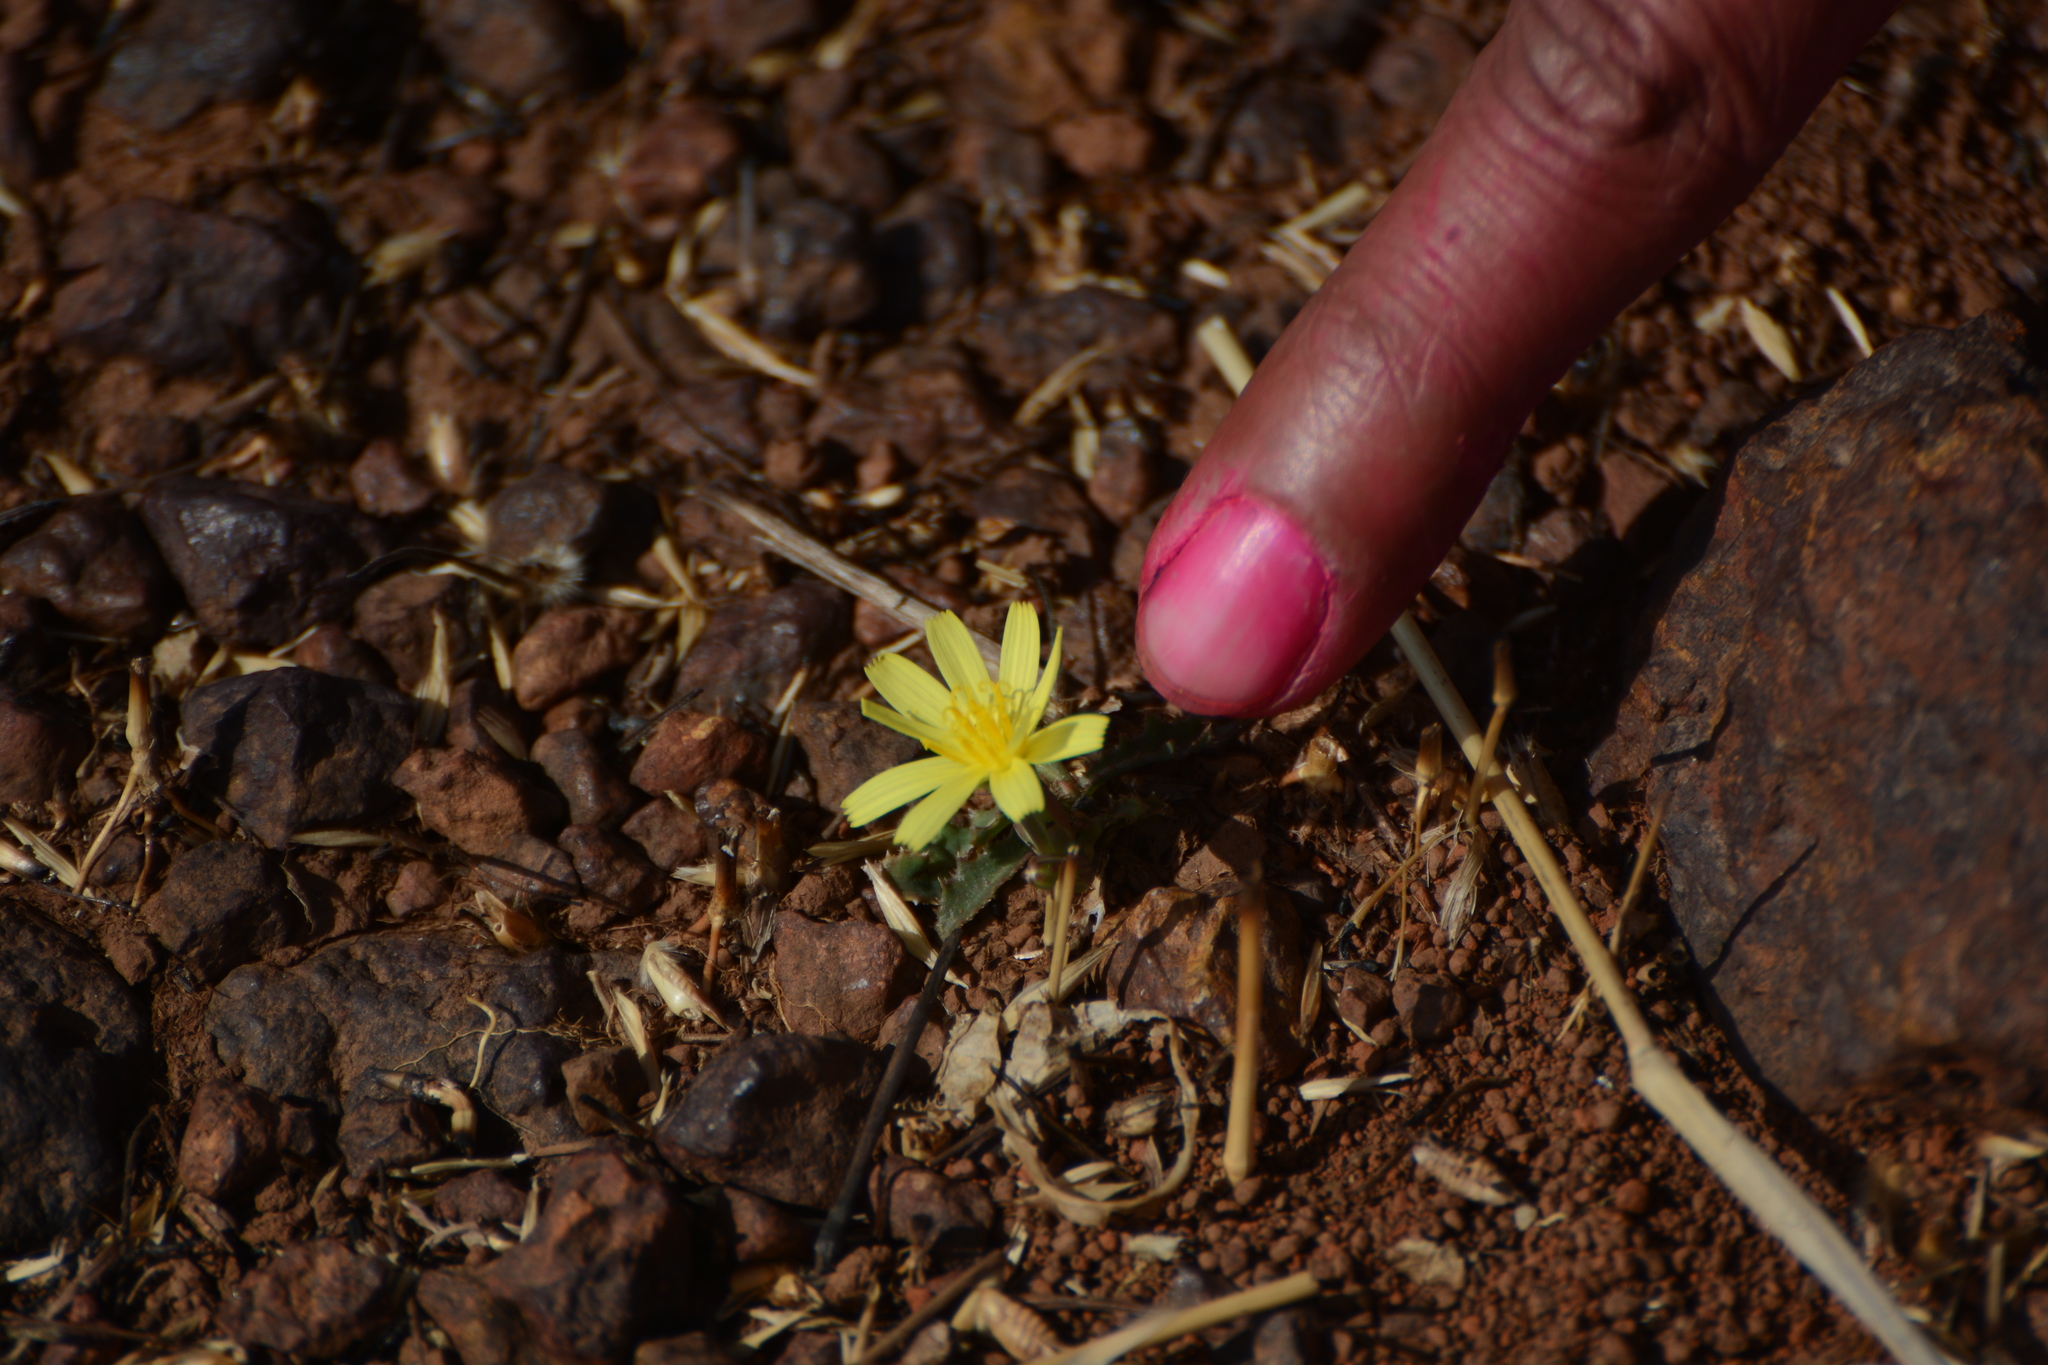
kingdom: Plantae
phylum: Tracheophyta
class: Magnoliopsida
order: Asterales
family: Asteraceae
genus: Launaea
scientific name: Launaea sarmentosa
